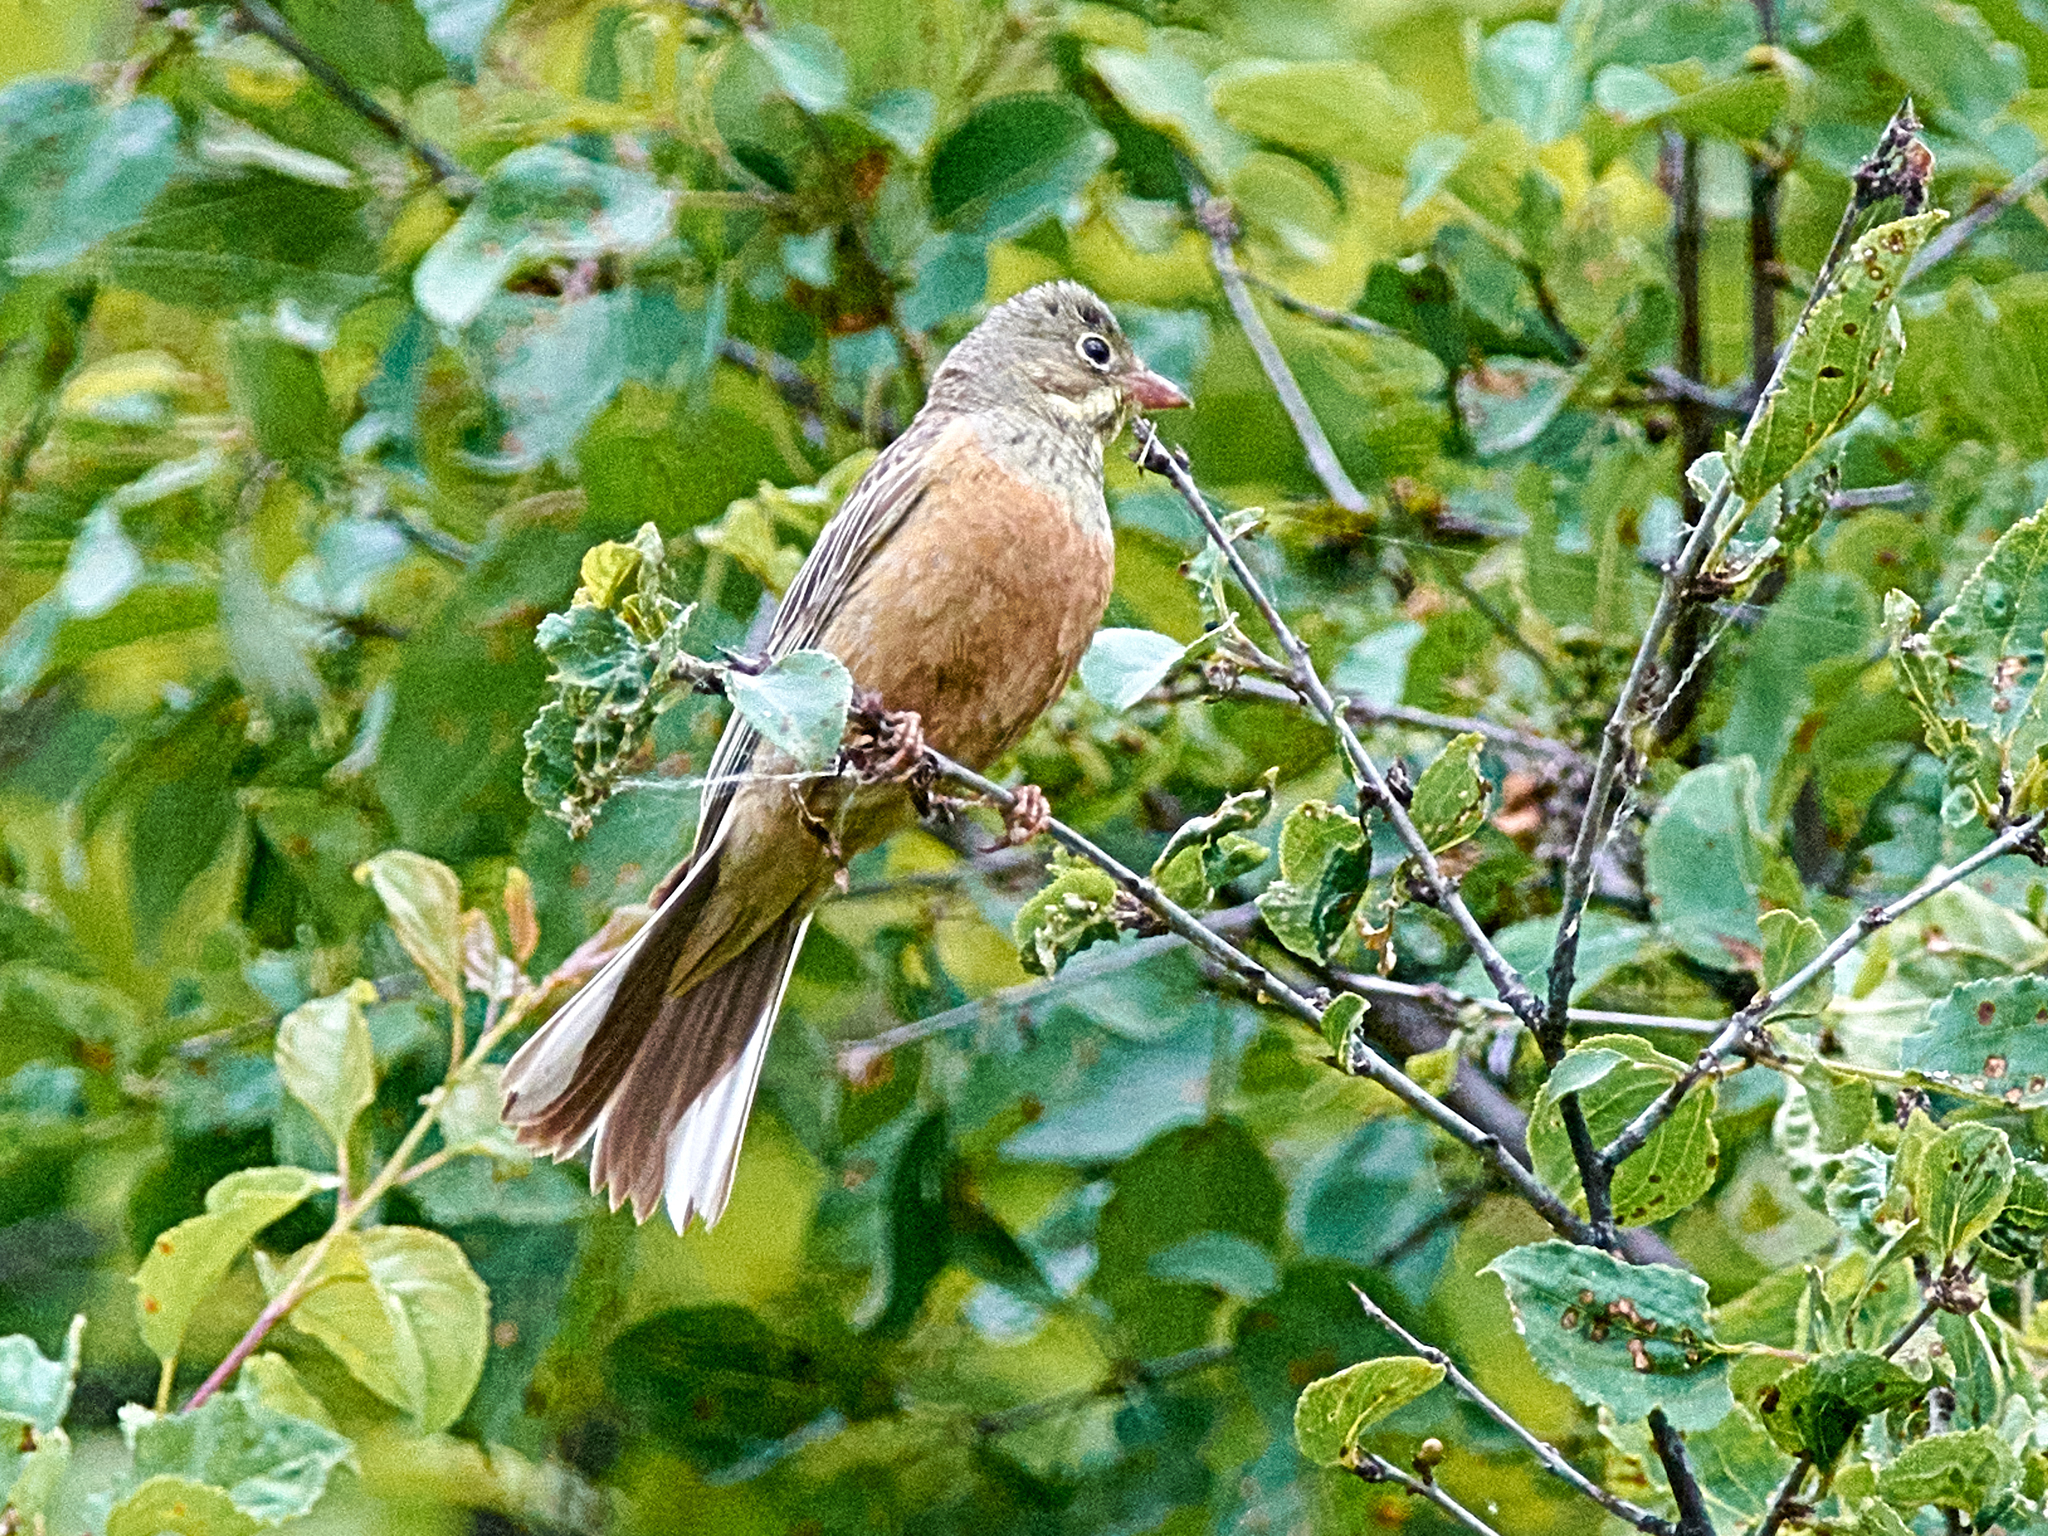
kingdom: Animalia
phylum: Chordata
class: Aves
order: Passeriformes
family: Emberizidae
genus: Emberiza
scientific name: Emberiza hortulana
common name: Ortolan bunting
